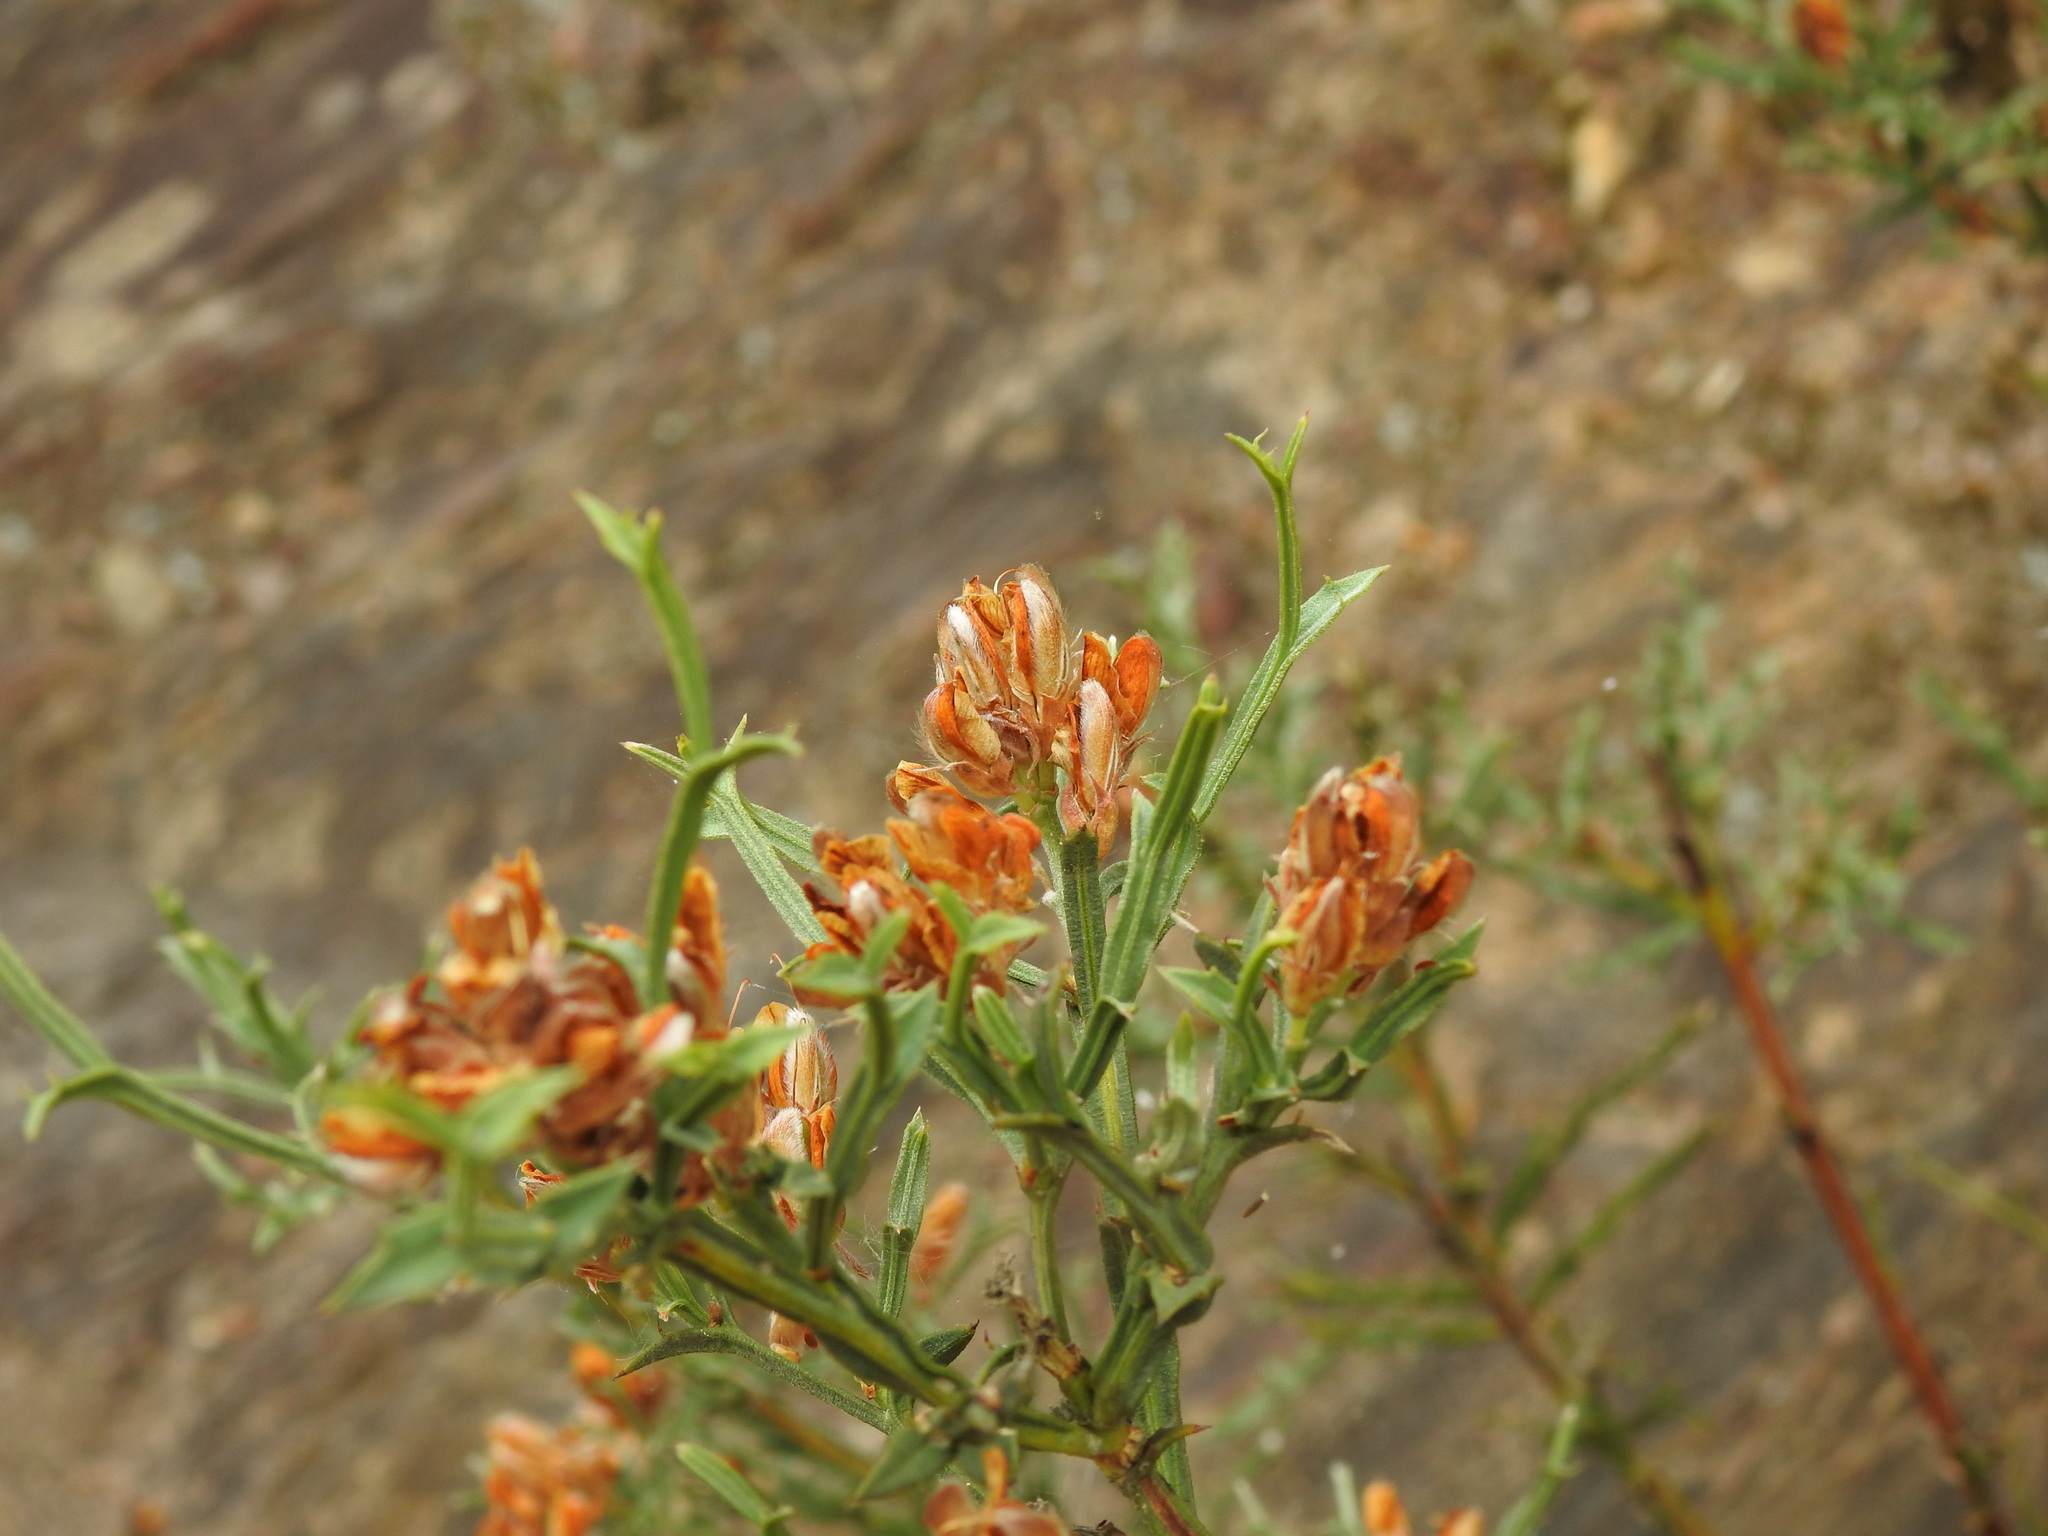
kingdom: Plantae
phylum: Tracheophyta
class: Magnoliopsida
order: Fabales
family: Fabaceae
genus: Genista
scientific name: Genista tridentata
